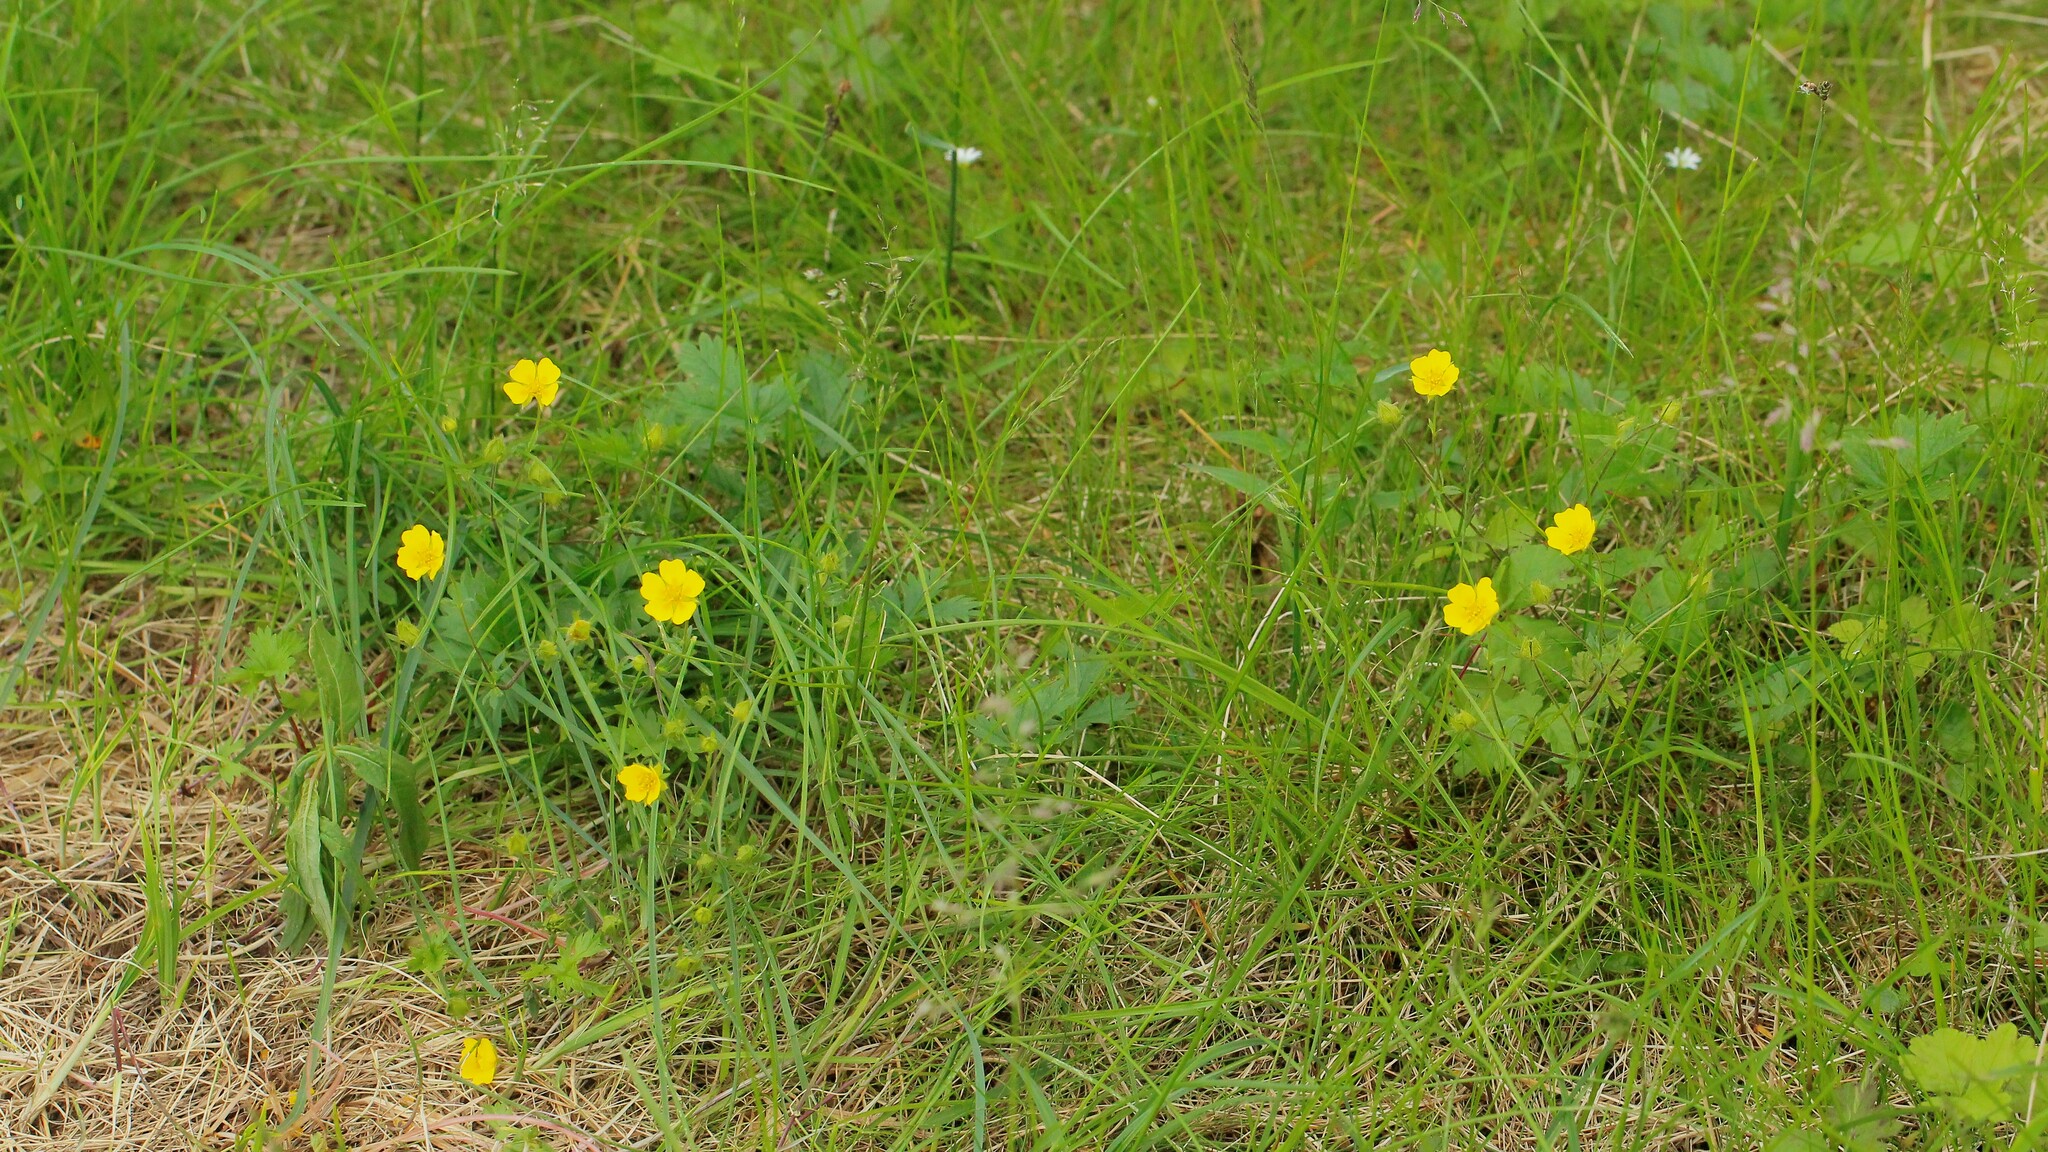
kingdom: Plantae
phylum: Tracheophyta
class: Magnoliopsida
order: Rosales
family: Rosaceae
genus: Potentilla
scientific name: Potentilla crantzii
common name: Alpine cinquefoil
